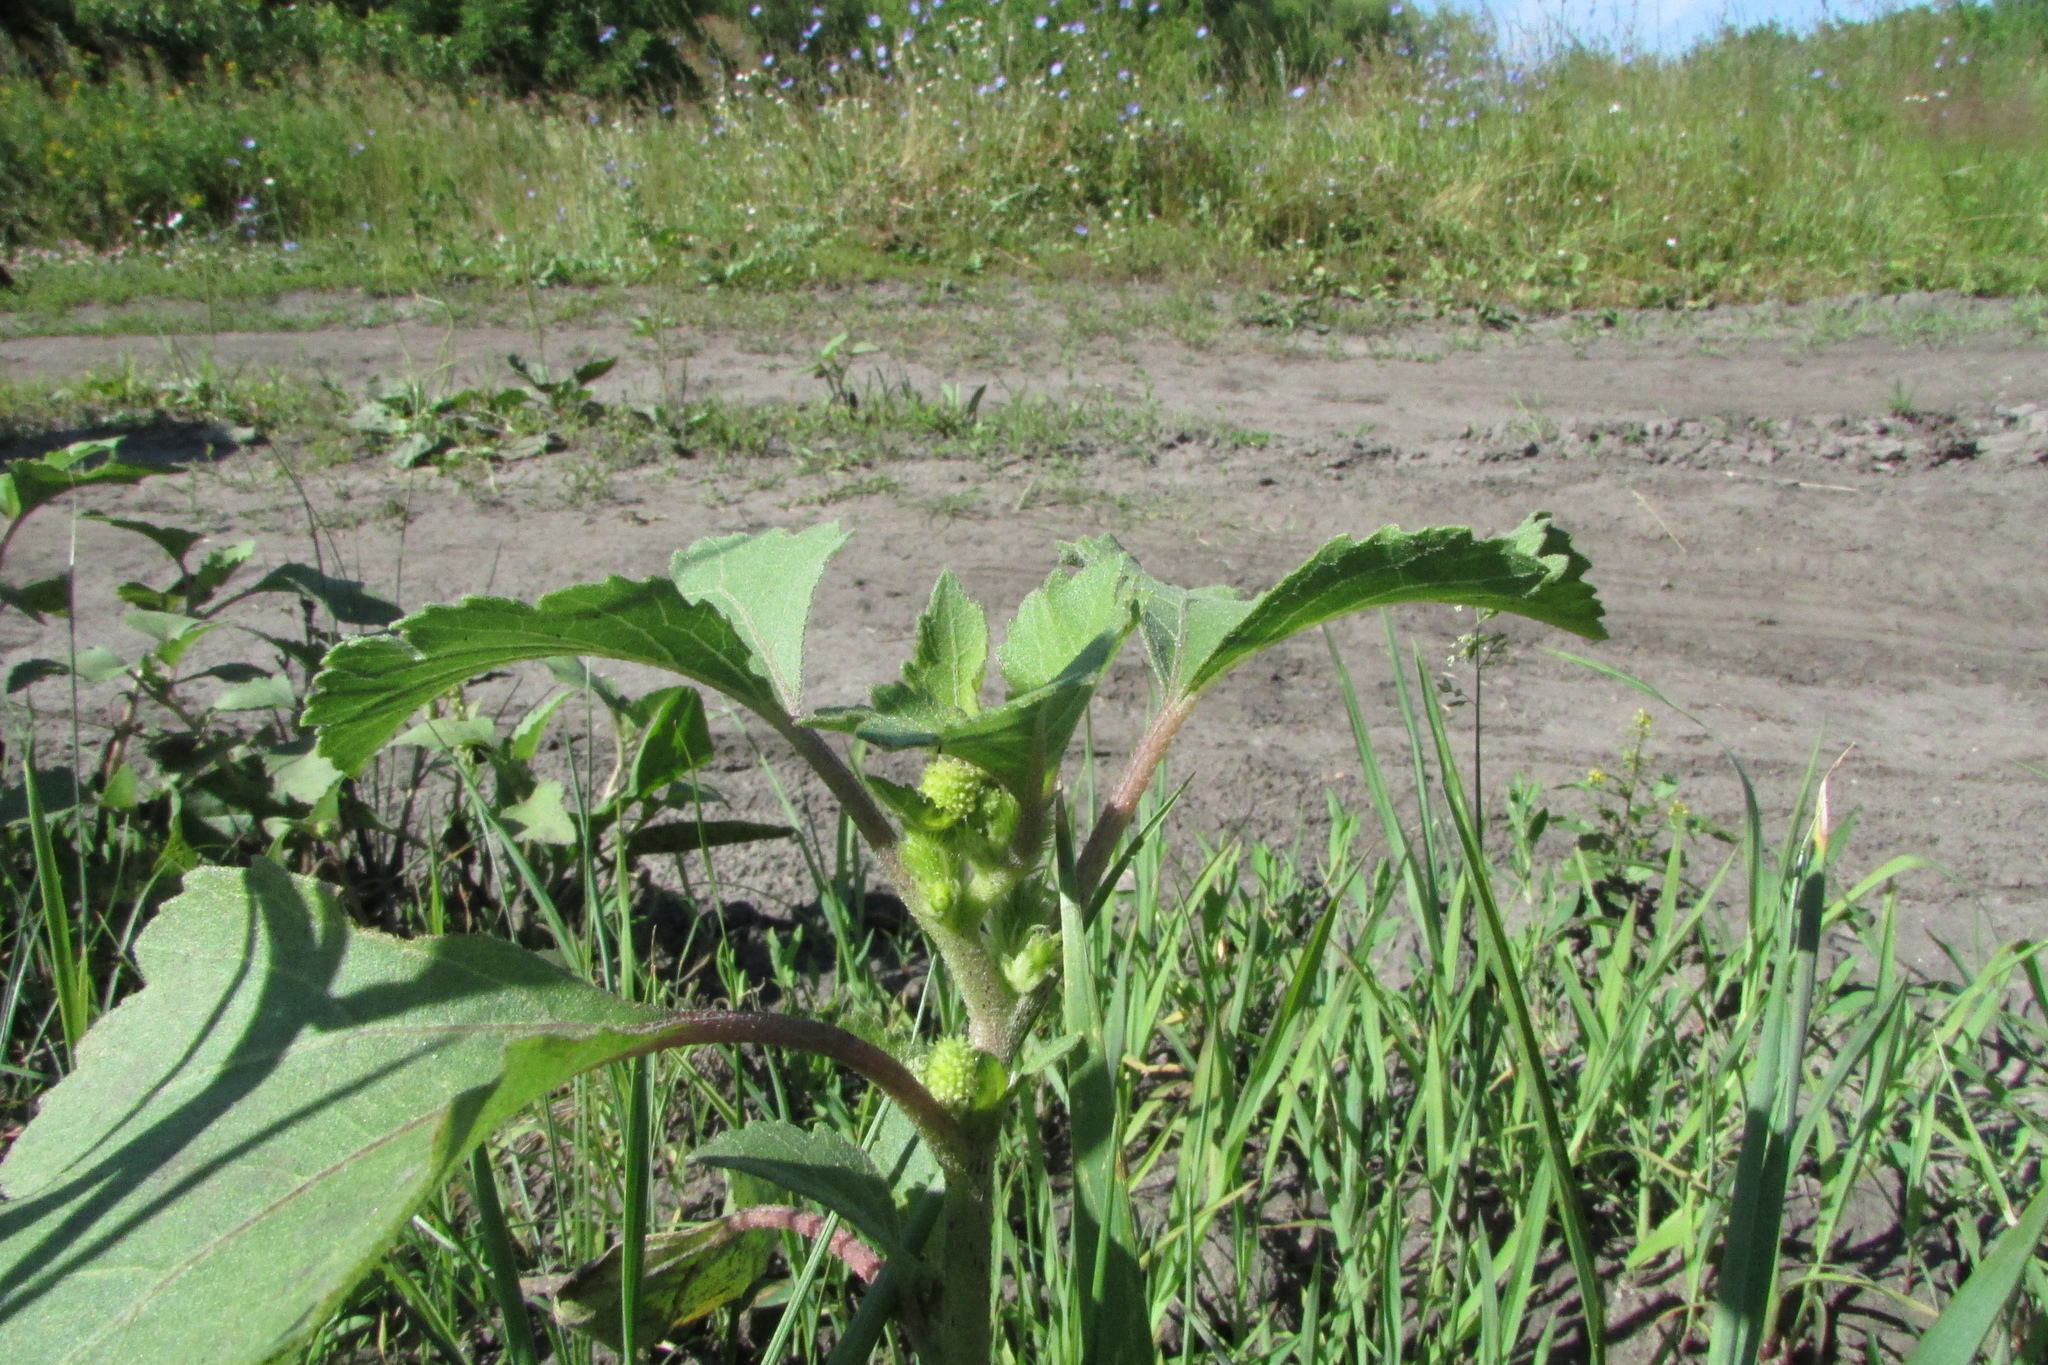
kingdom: Plantae
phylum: Tracheophyta
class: Magnoliopsida
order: Asterales
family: Asteraceae
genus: Xanthium
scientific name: Xanthium orientale
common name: Californian burr
